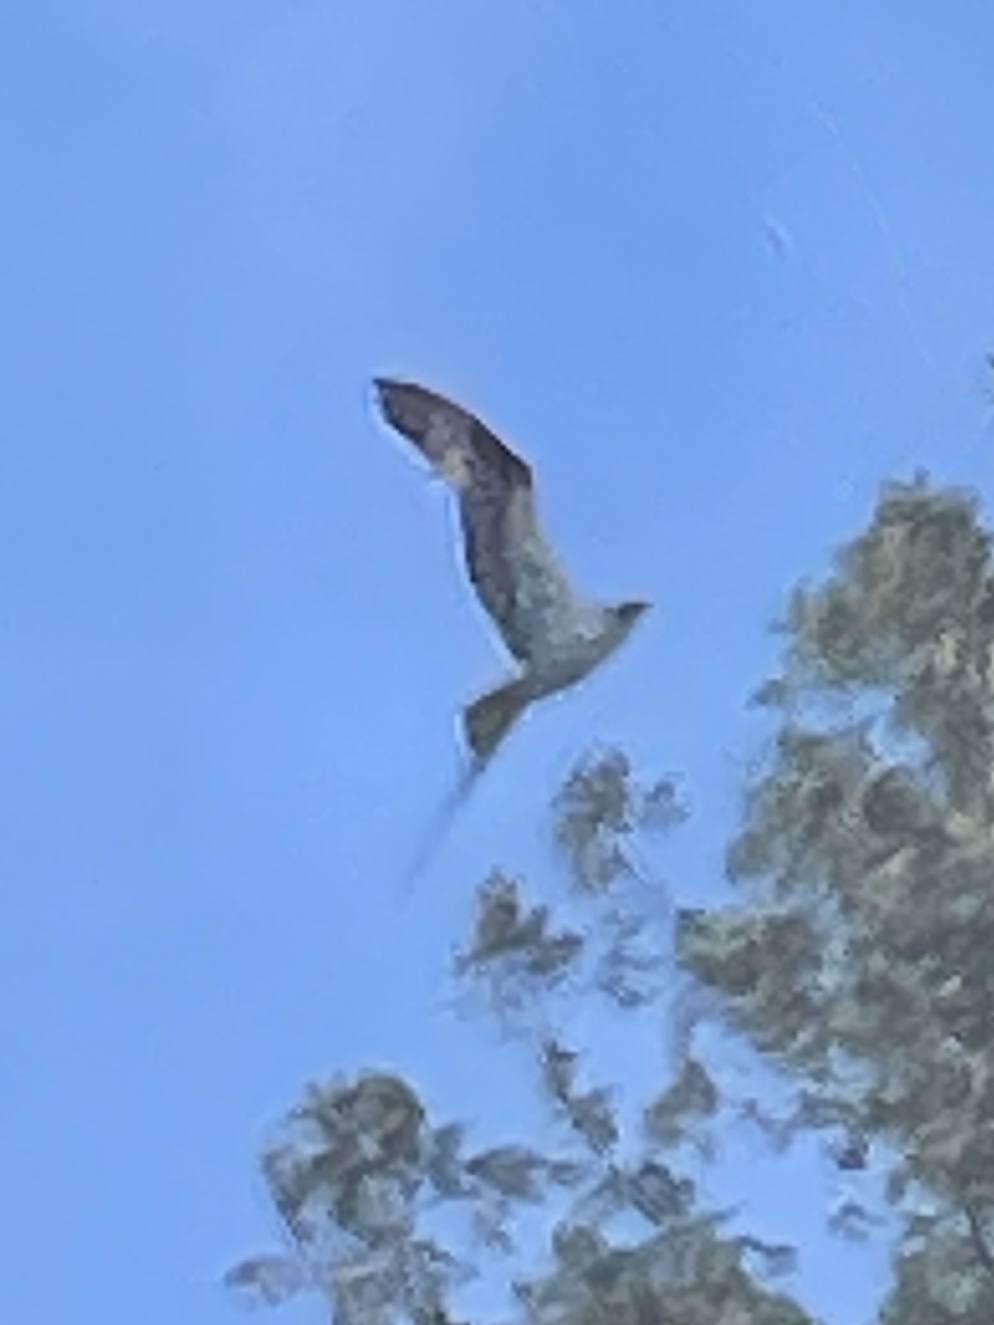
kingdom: Animalia
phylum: Chordata
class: Aves
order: Accipitriformes
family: Pandionidae
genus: Pandion
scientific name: Pandion haliaetus
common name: Osprey
